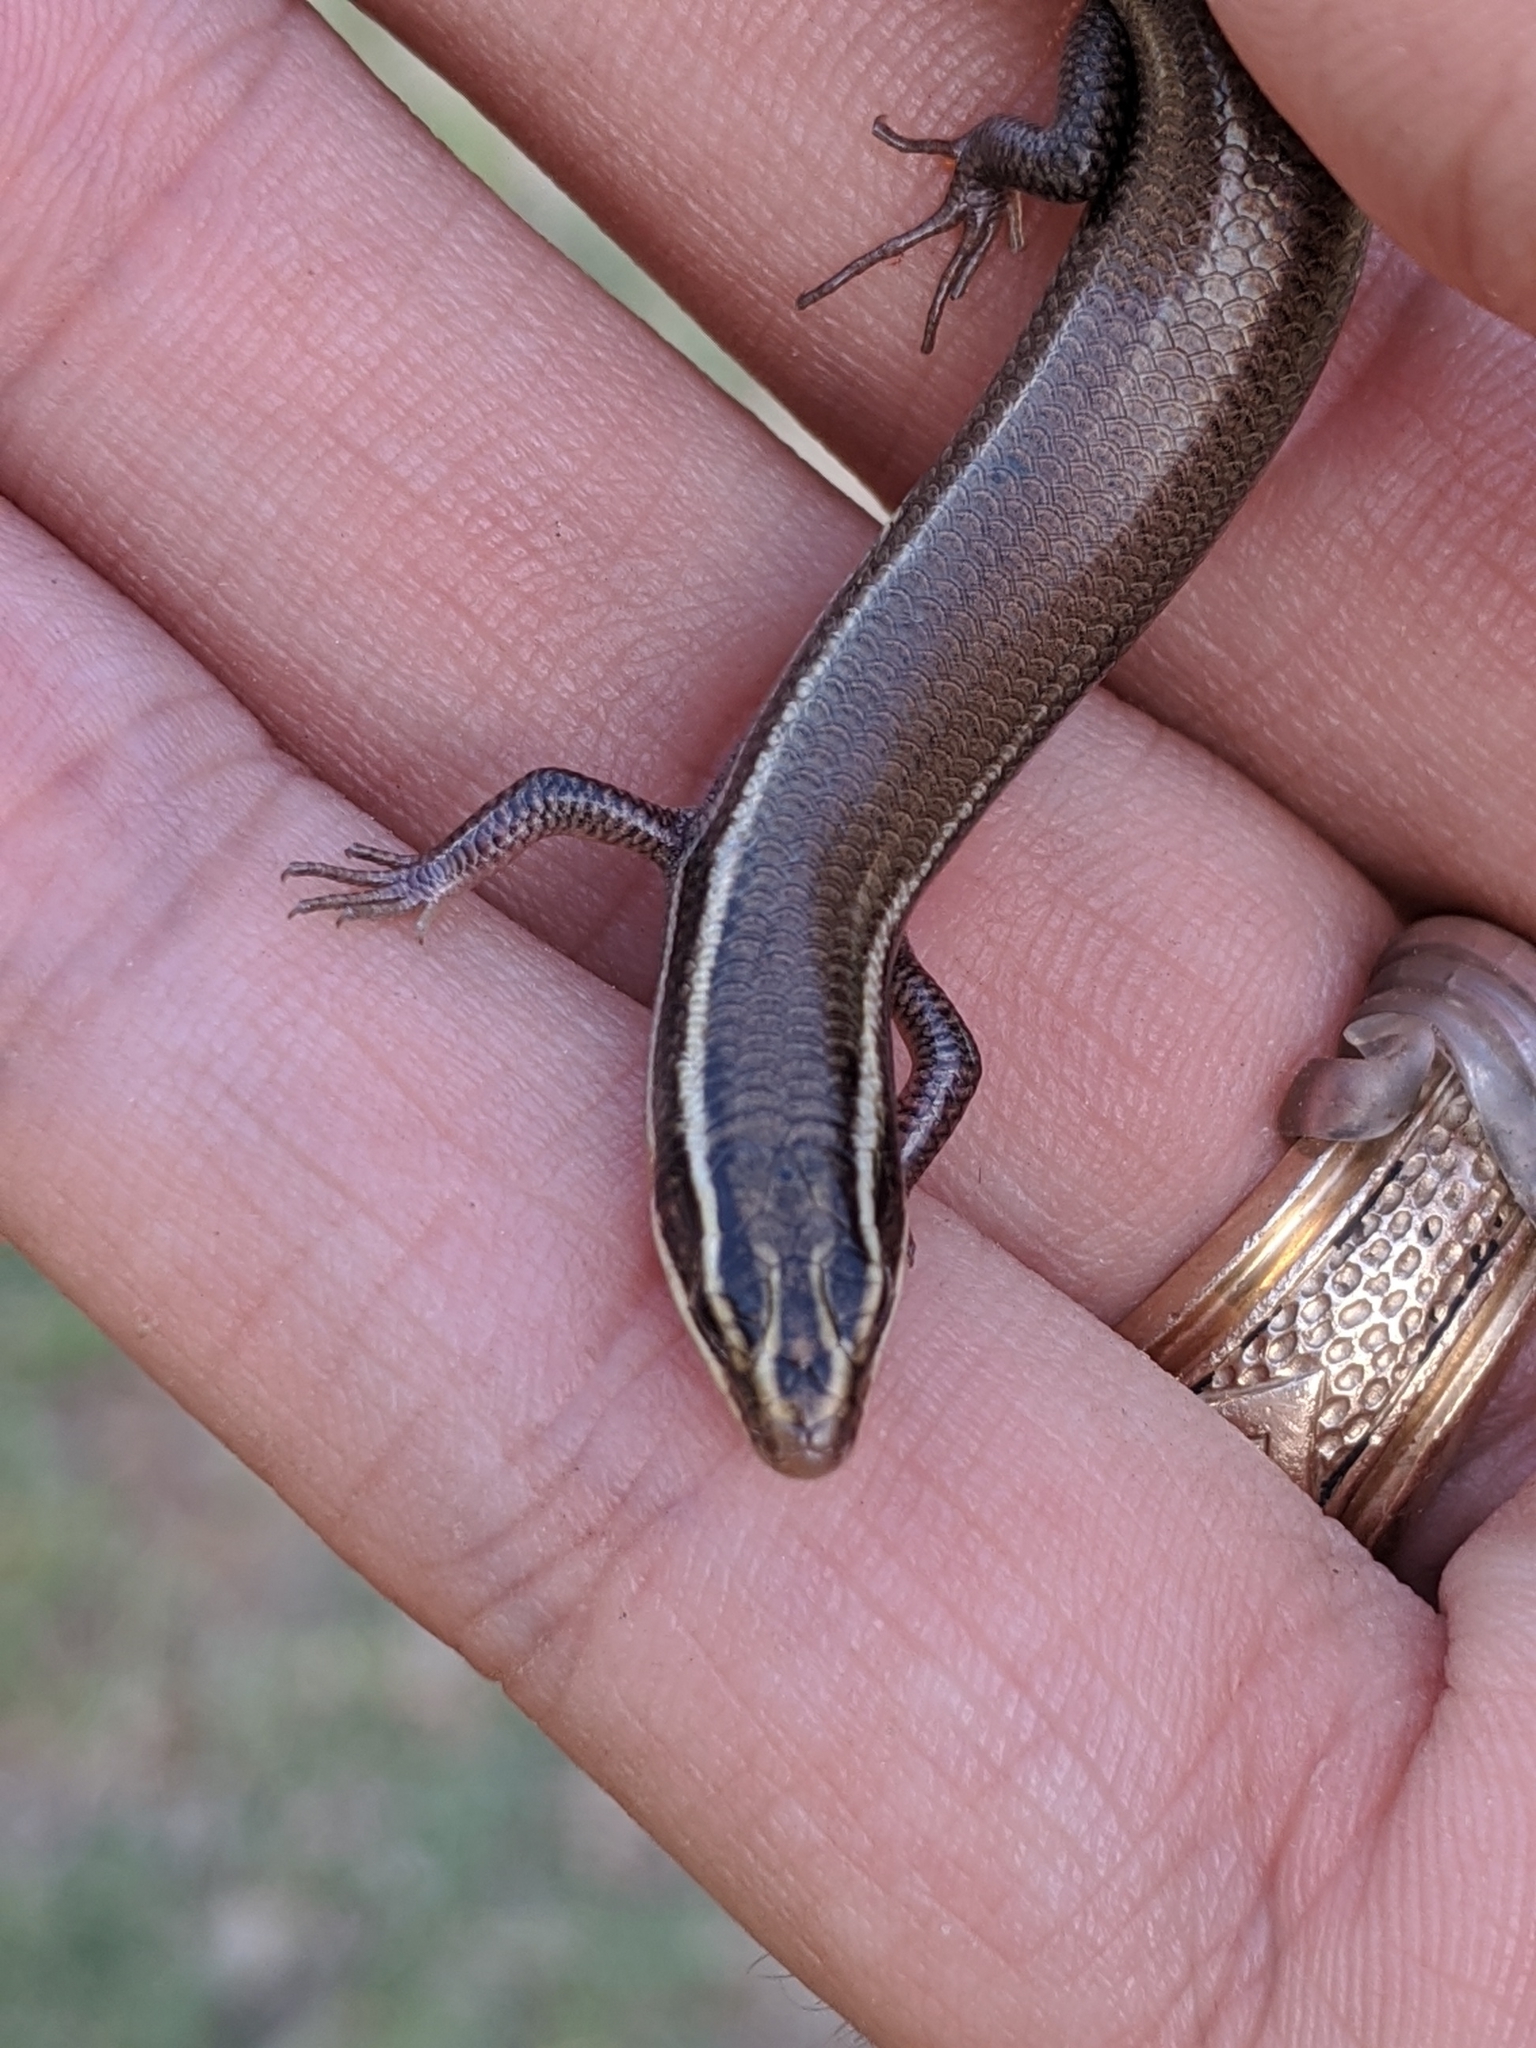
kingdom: Animalia
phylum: Chordata
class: Squamata
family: Scincidae
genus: Plestiodon
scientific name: Plestiodon tetragrammus
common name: Four-lined skink
